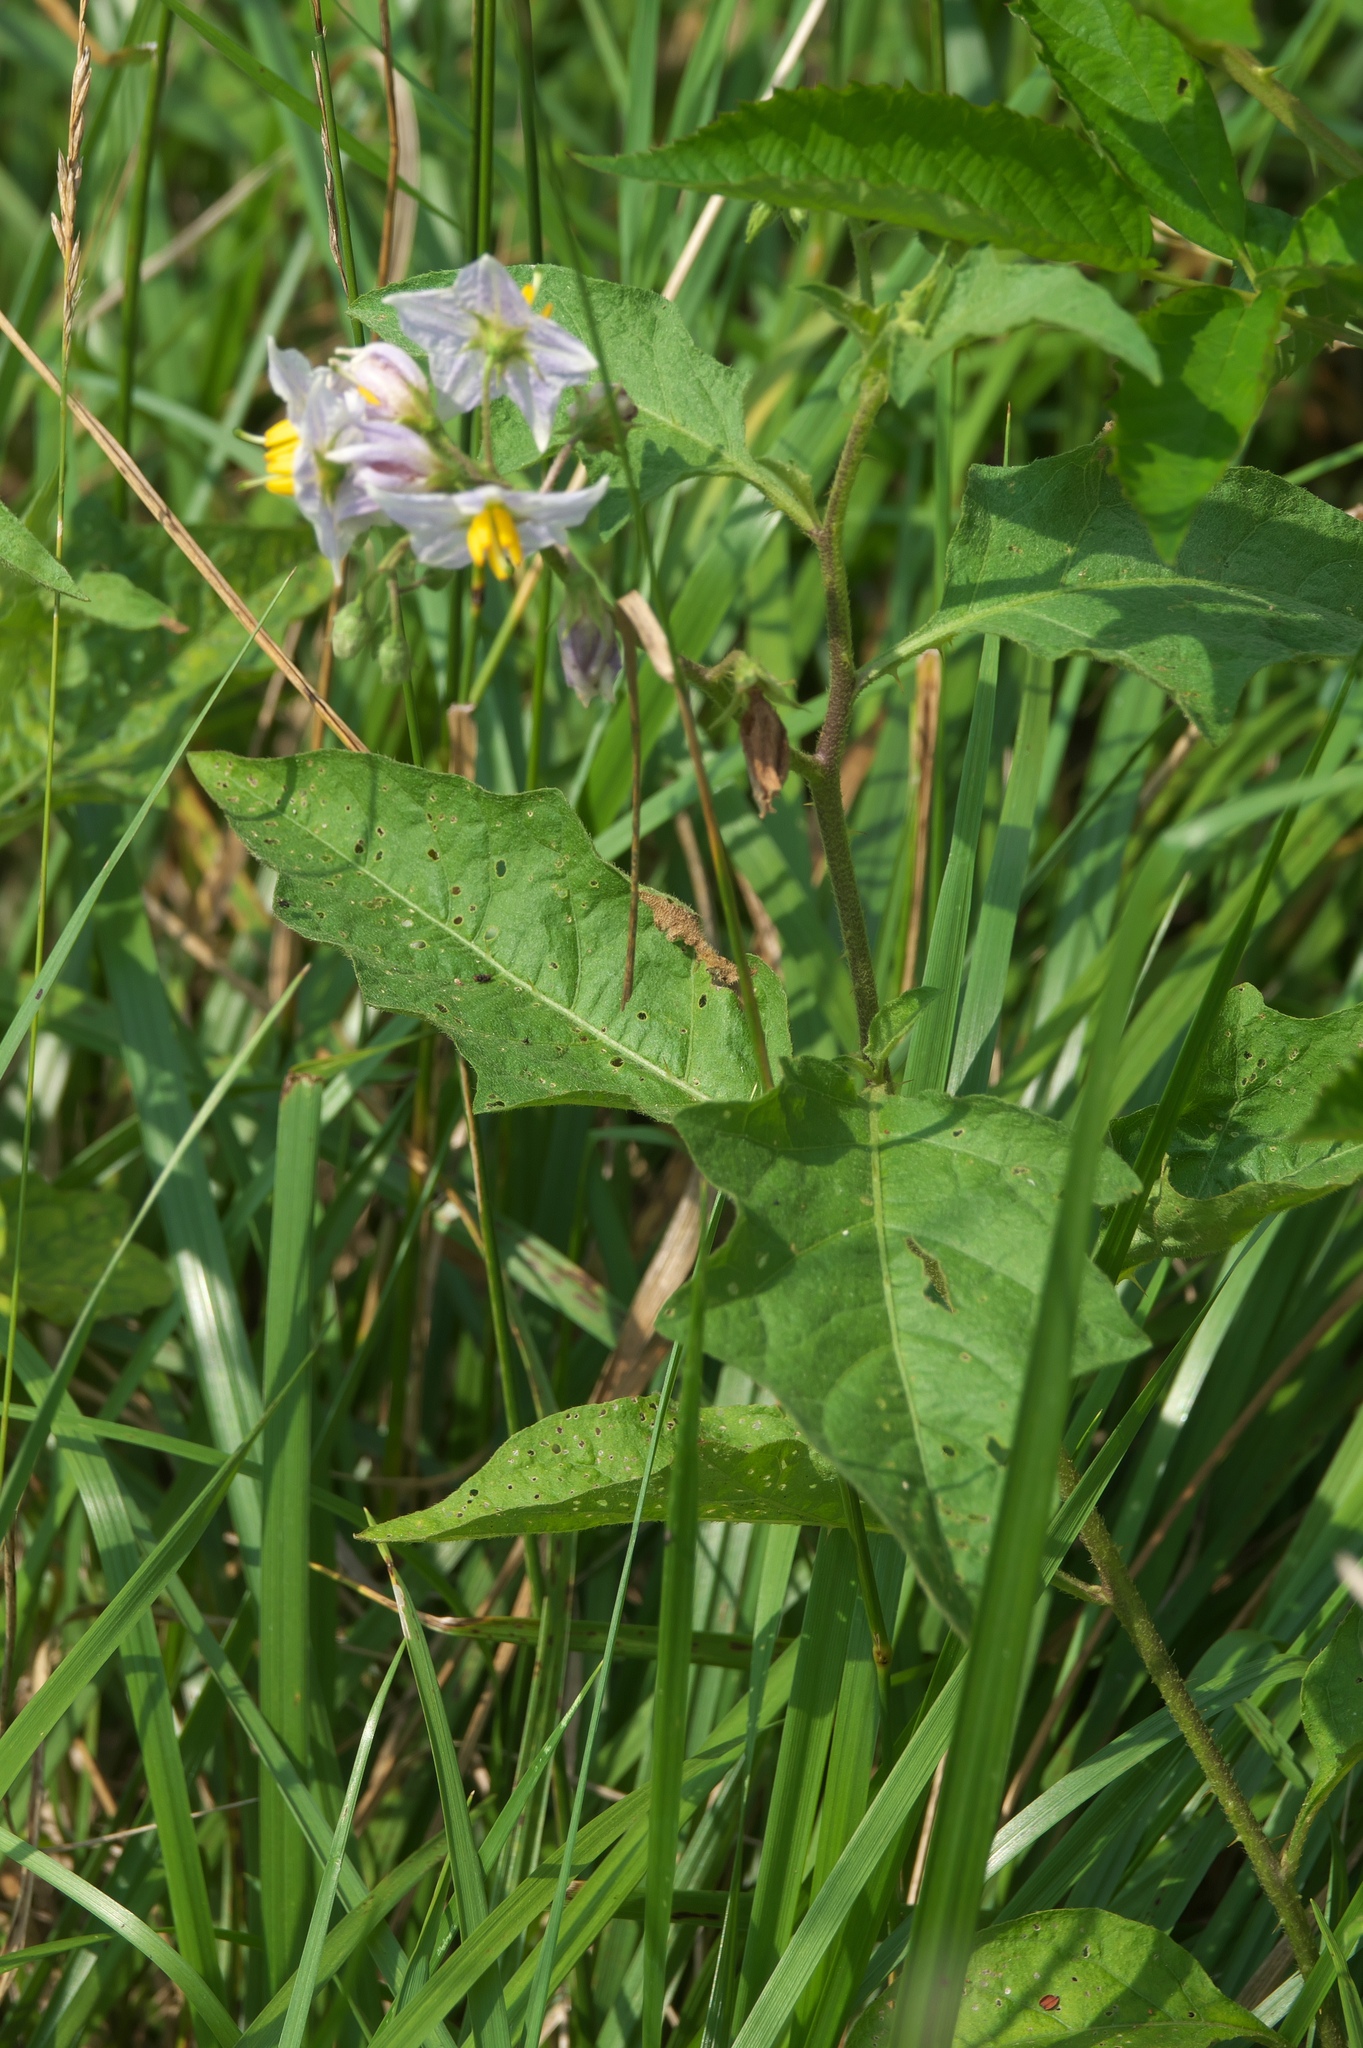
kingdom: Plantae
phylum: Tracheophyta
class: Magnoliopsida
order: Solanales
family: Solanaceae
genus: Solanum
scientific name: Solanum carolinense
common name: Horse-nettle
